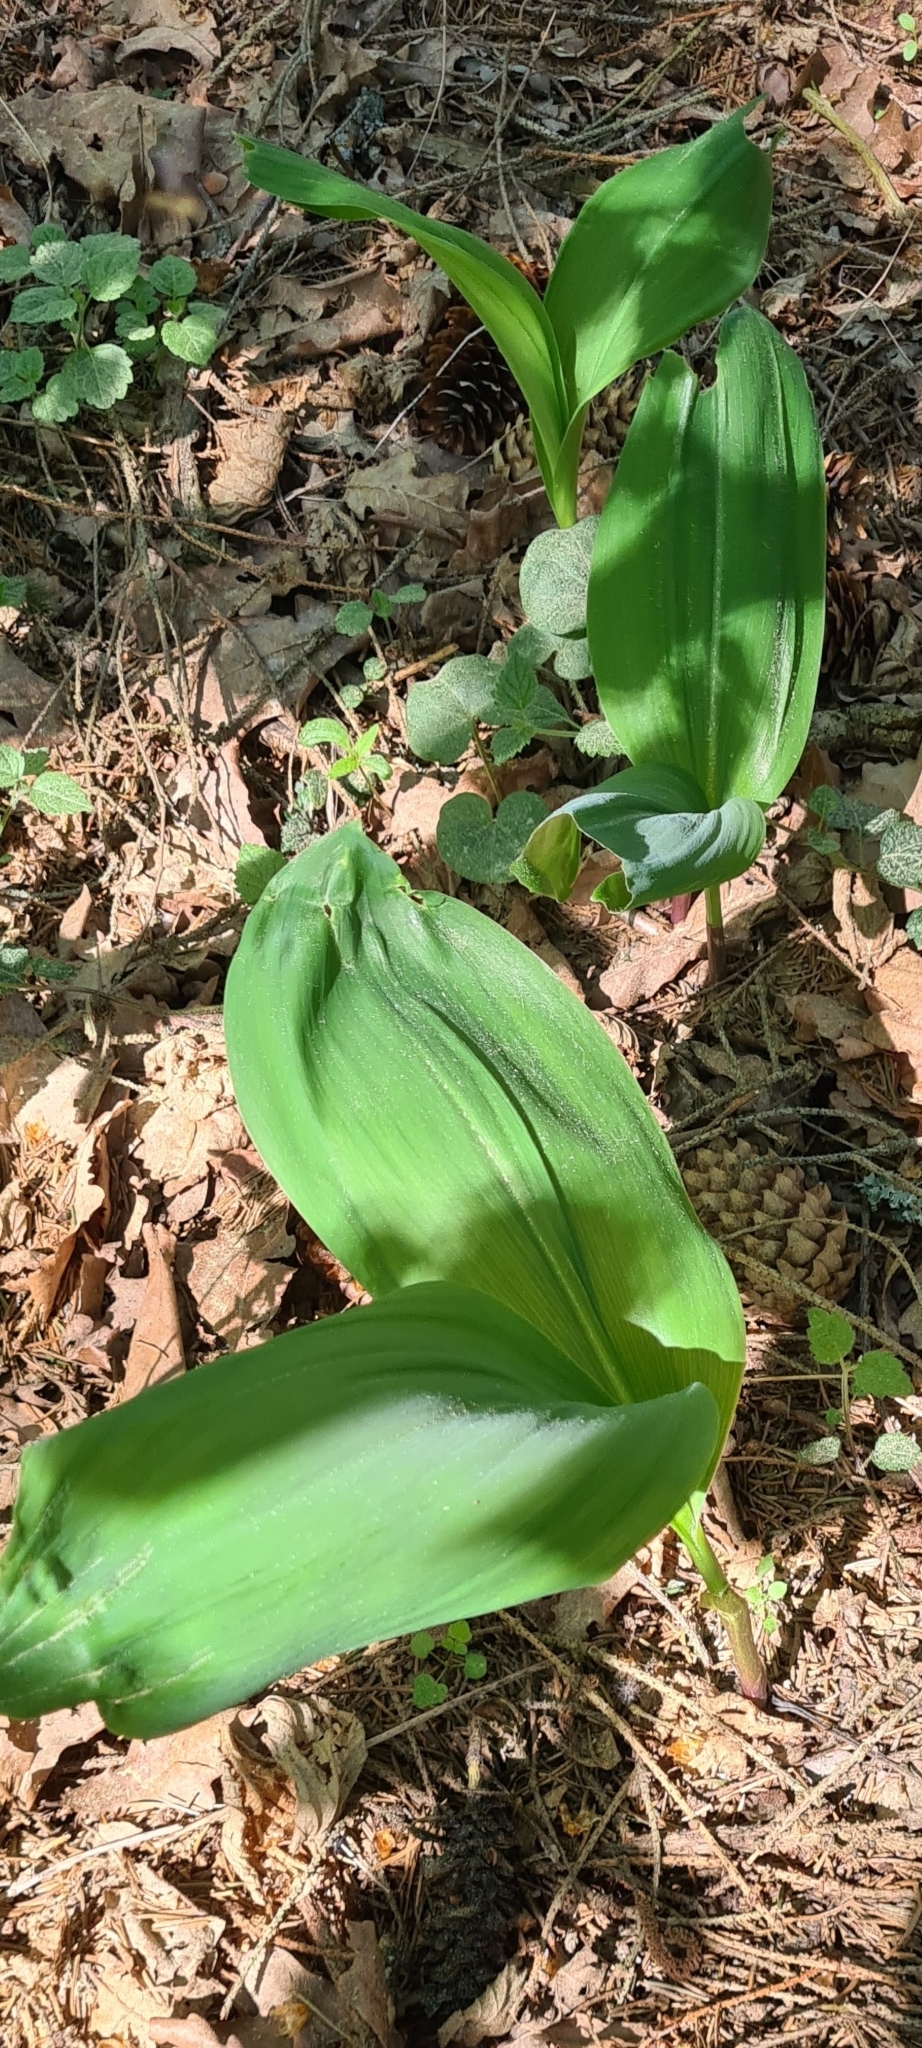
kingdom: Plantae
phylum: Tracheophyta
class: Liliopsida
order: Asparagales
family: Asparagaceae
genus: Convallaria
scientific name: Convallaria majalis
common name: Lily-of-the-valley
